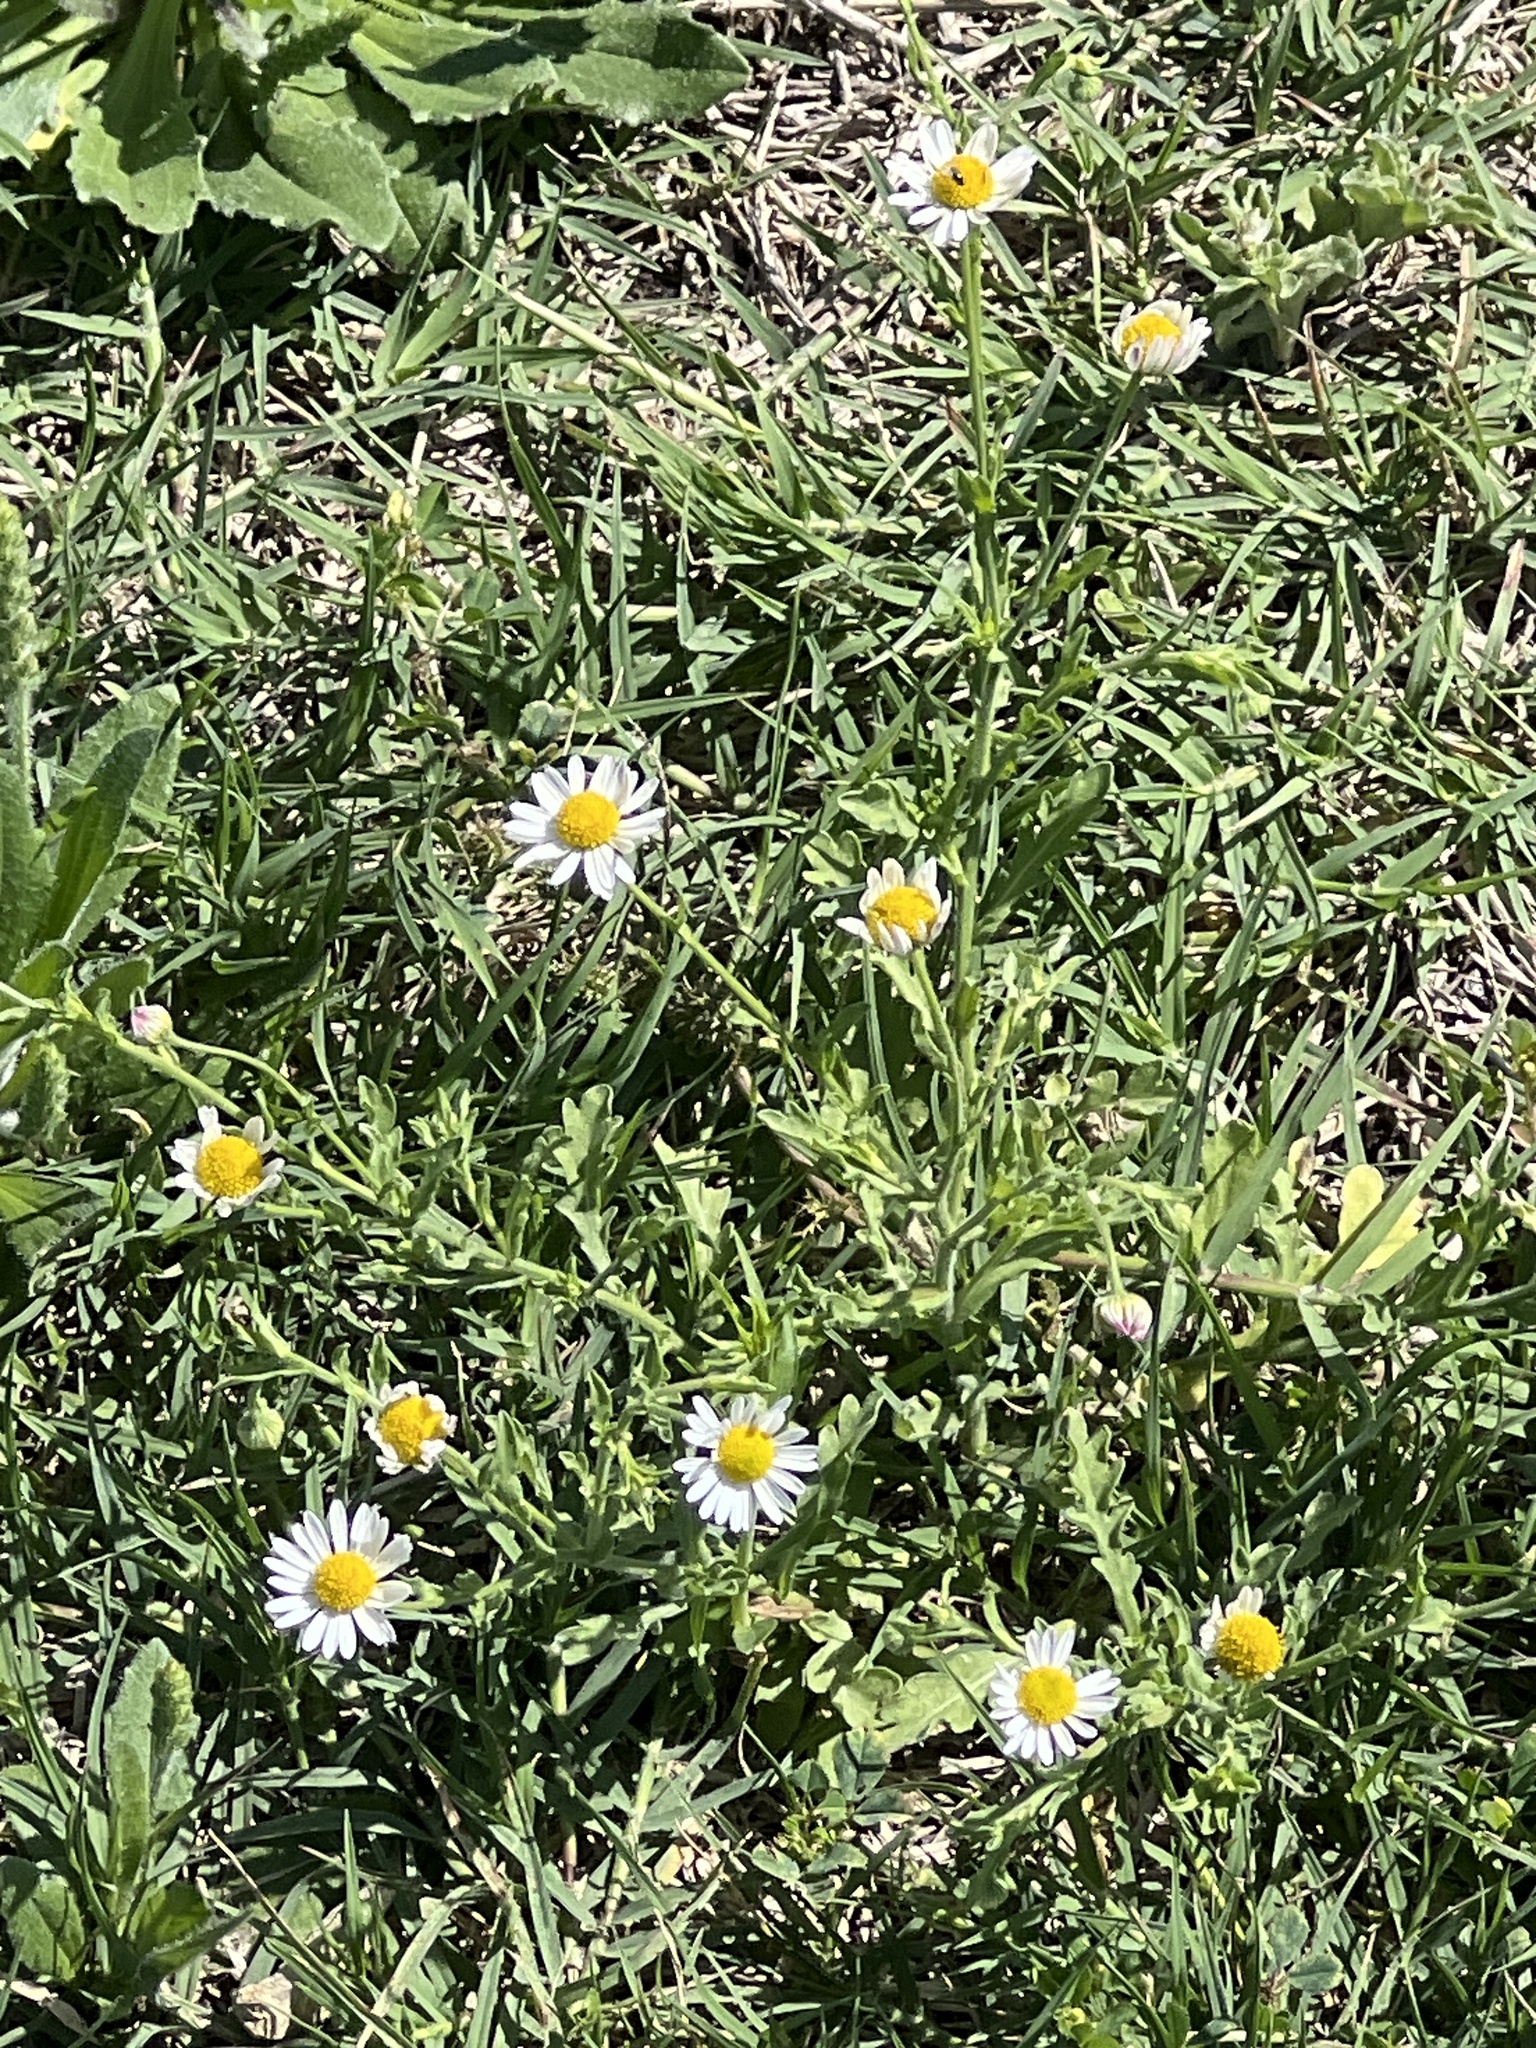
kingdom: Plantae
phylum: Tracheophyta
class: Magnoliopsida
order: Asterales
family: Asteraceae
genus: Aphanostephus
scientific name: Aphanostephus ramosissimus
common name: Plains lazy daisy
